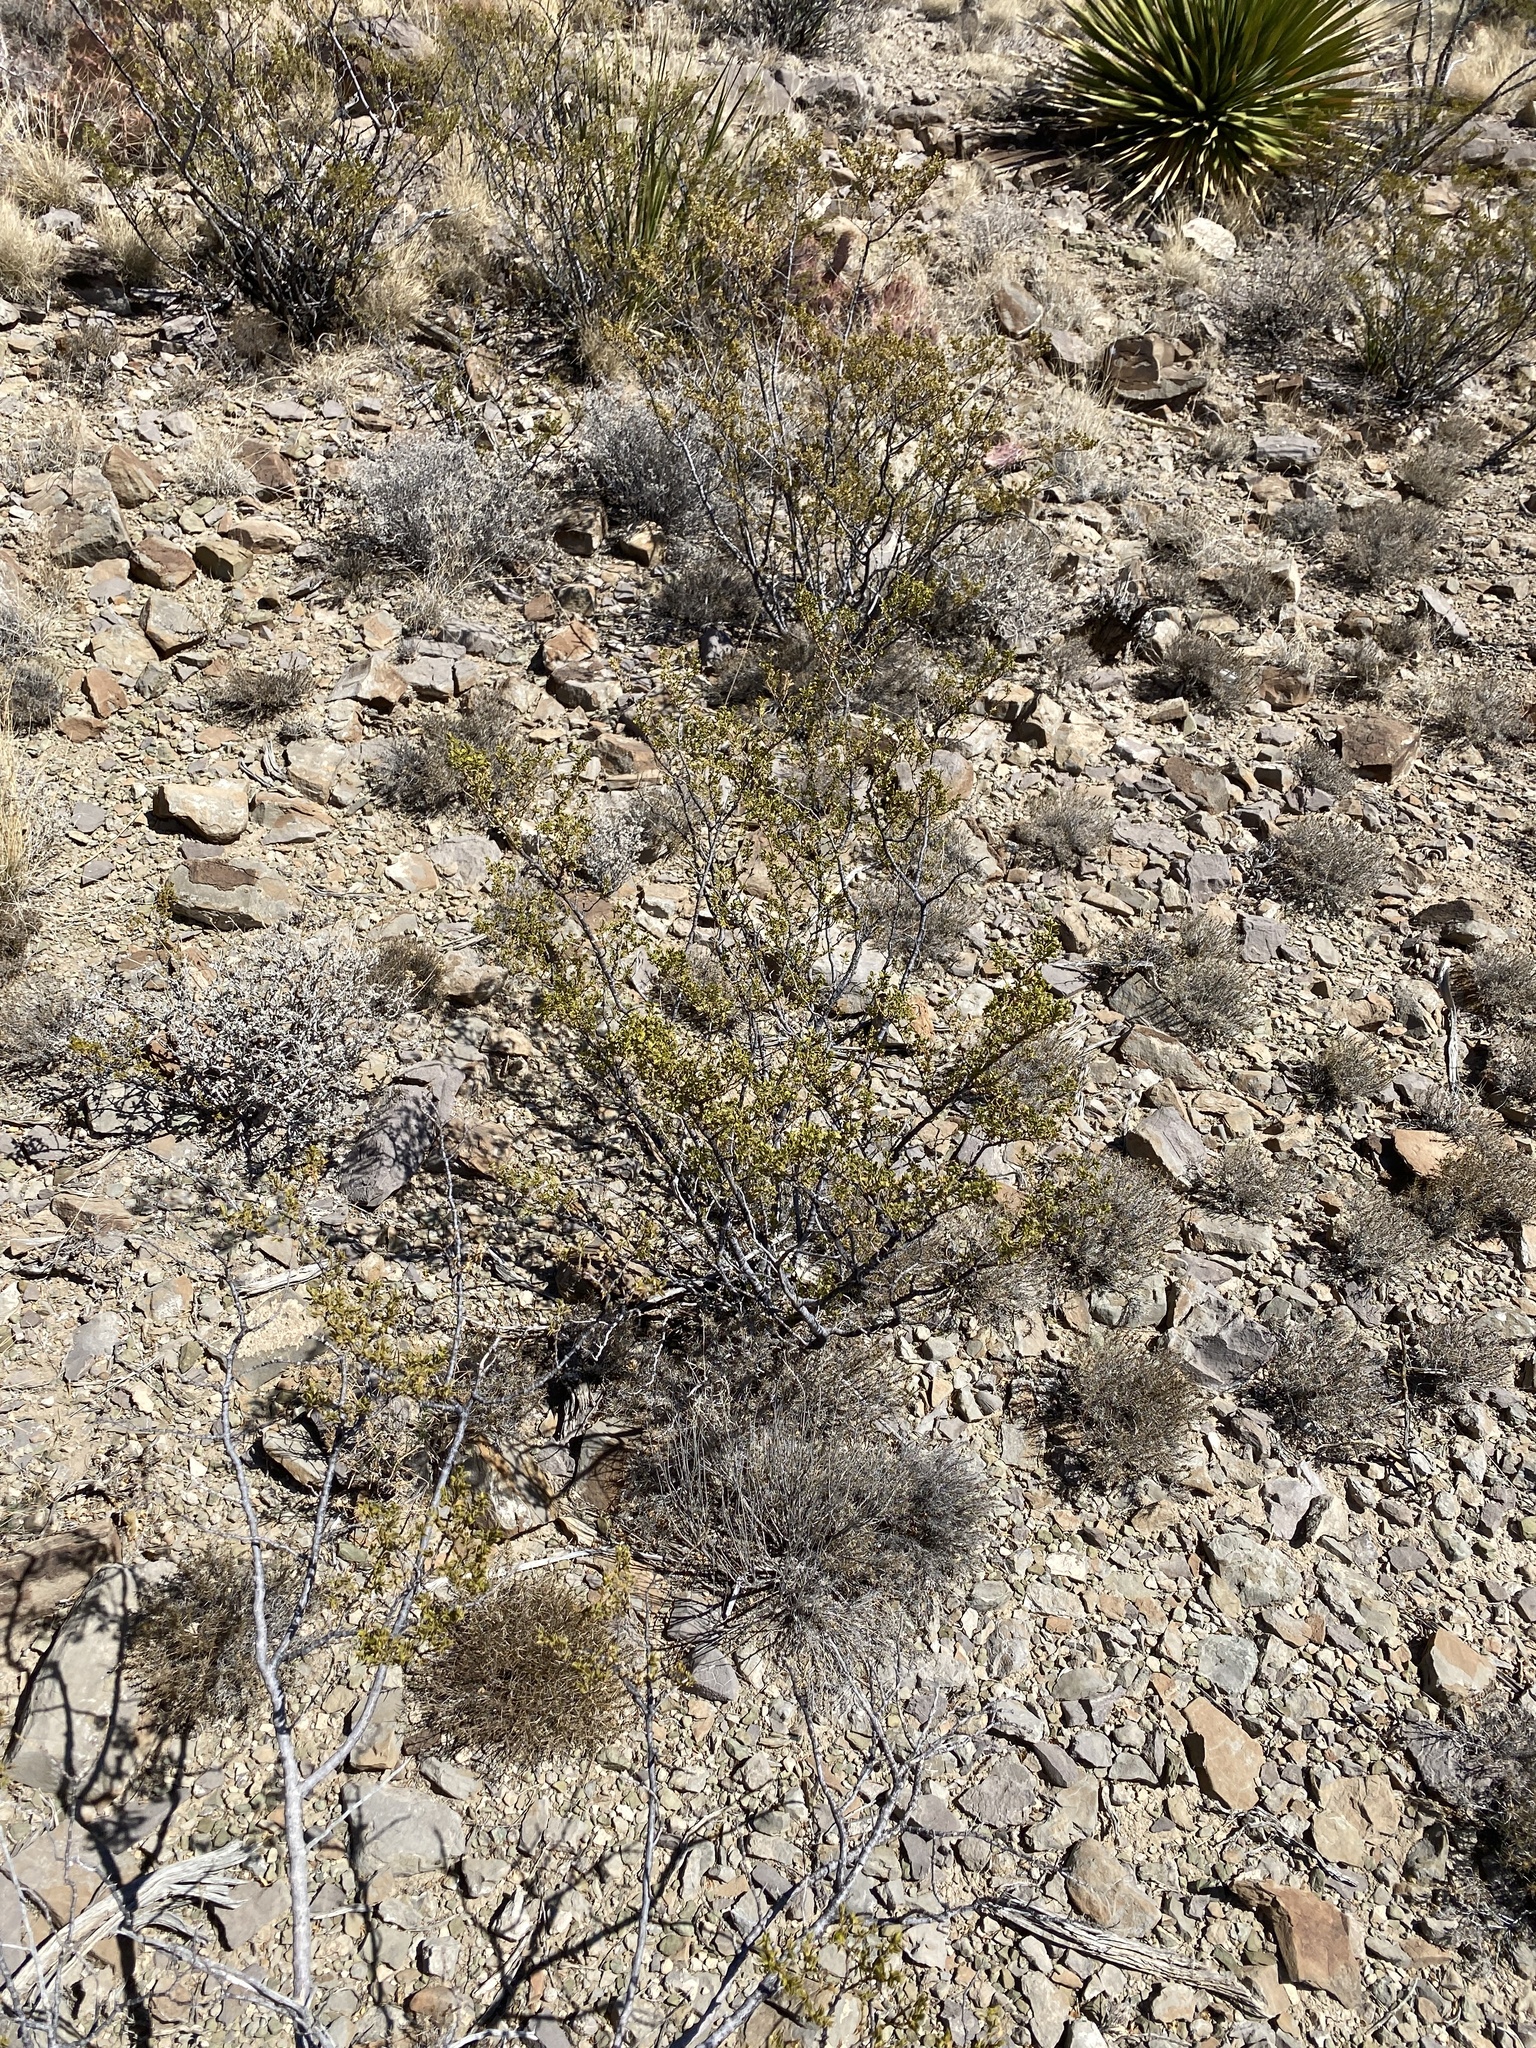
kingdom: Plantae
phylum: Tracheophyta
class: Magnoliopsida
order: Zygophyllales
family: Zygophyllaceae
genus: Larrea
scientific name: Larrea tridentata
